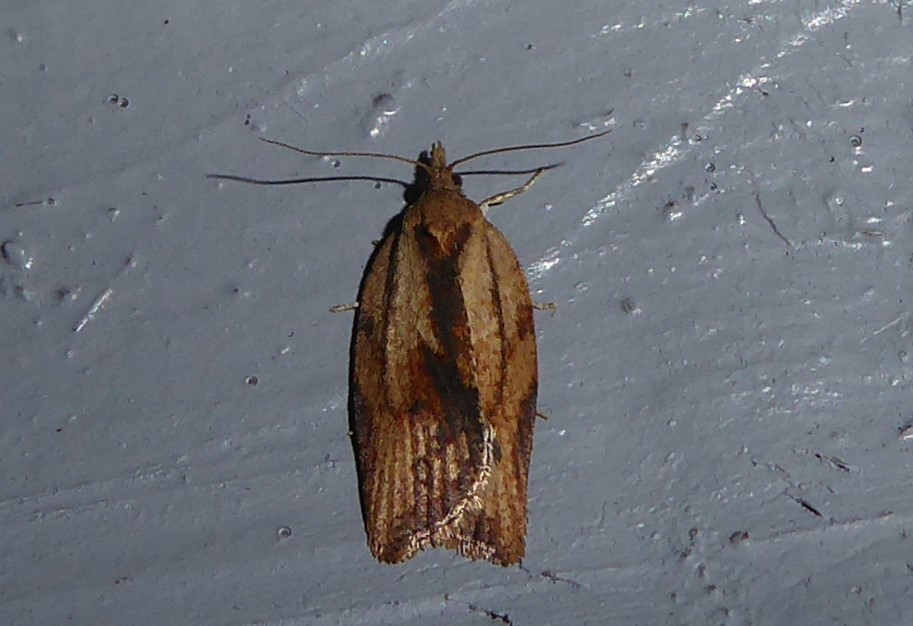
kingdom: Animalia
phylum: Arthropoda
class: Insecta
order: Lepidoptera
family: Tortricidae
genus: Epiphyas
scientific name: Epiphyas postvittana
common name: Light brown apple moth
